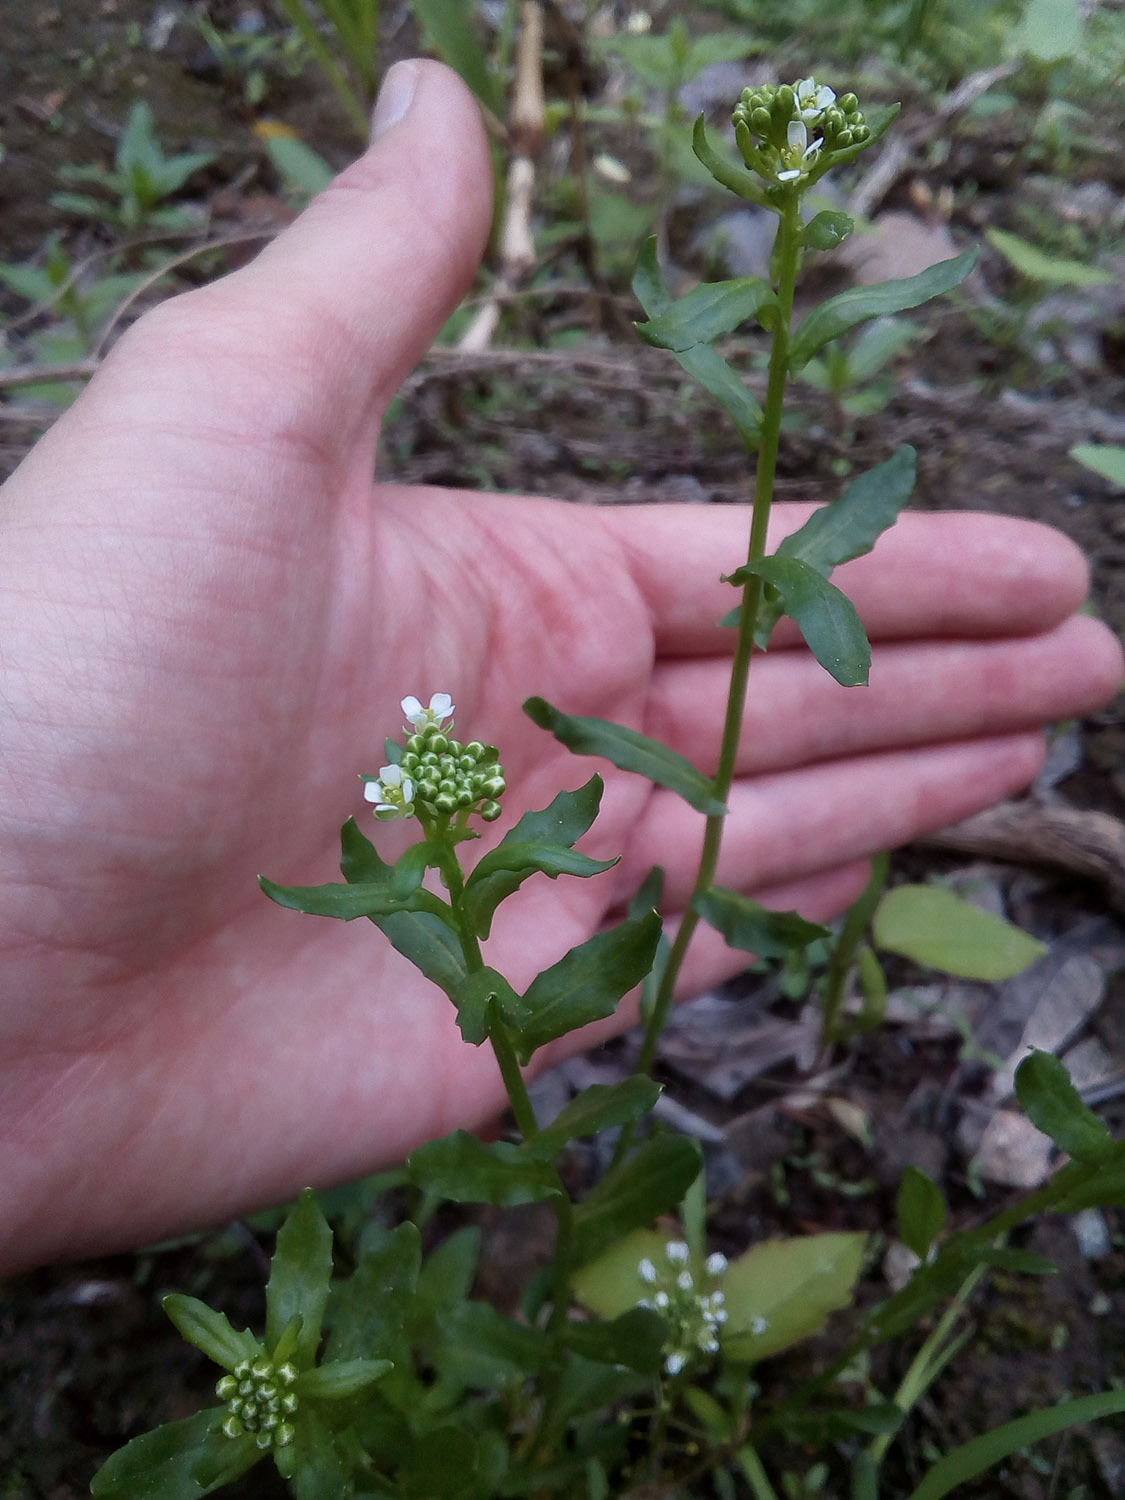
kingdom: Plantae
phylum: Tracheophyta
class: Magnoliopsida
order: Brassicales
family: Brassicaceae
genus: Thlaspi
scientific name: Thlaspi arvense
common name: Field pennycress
